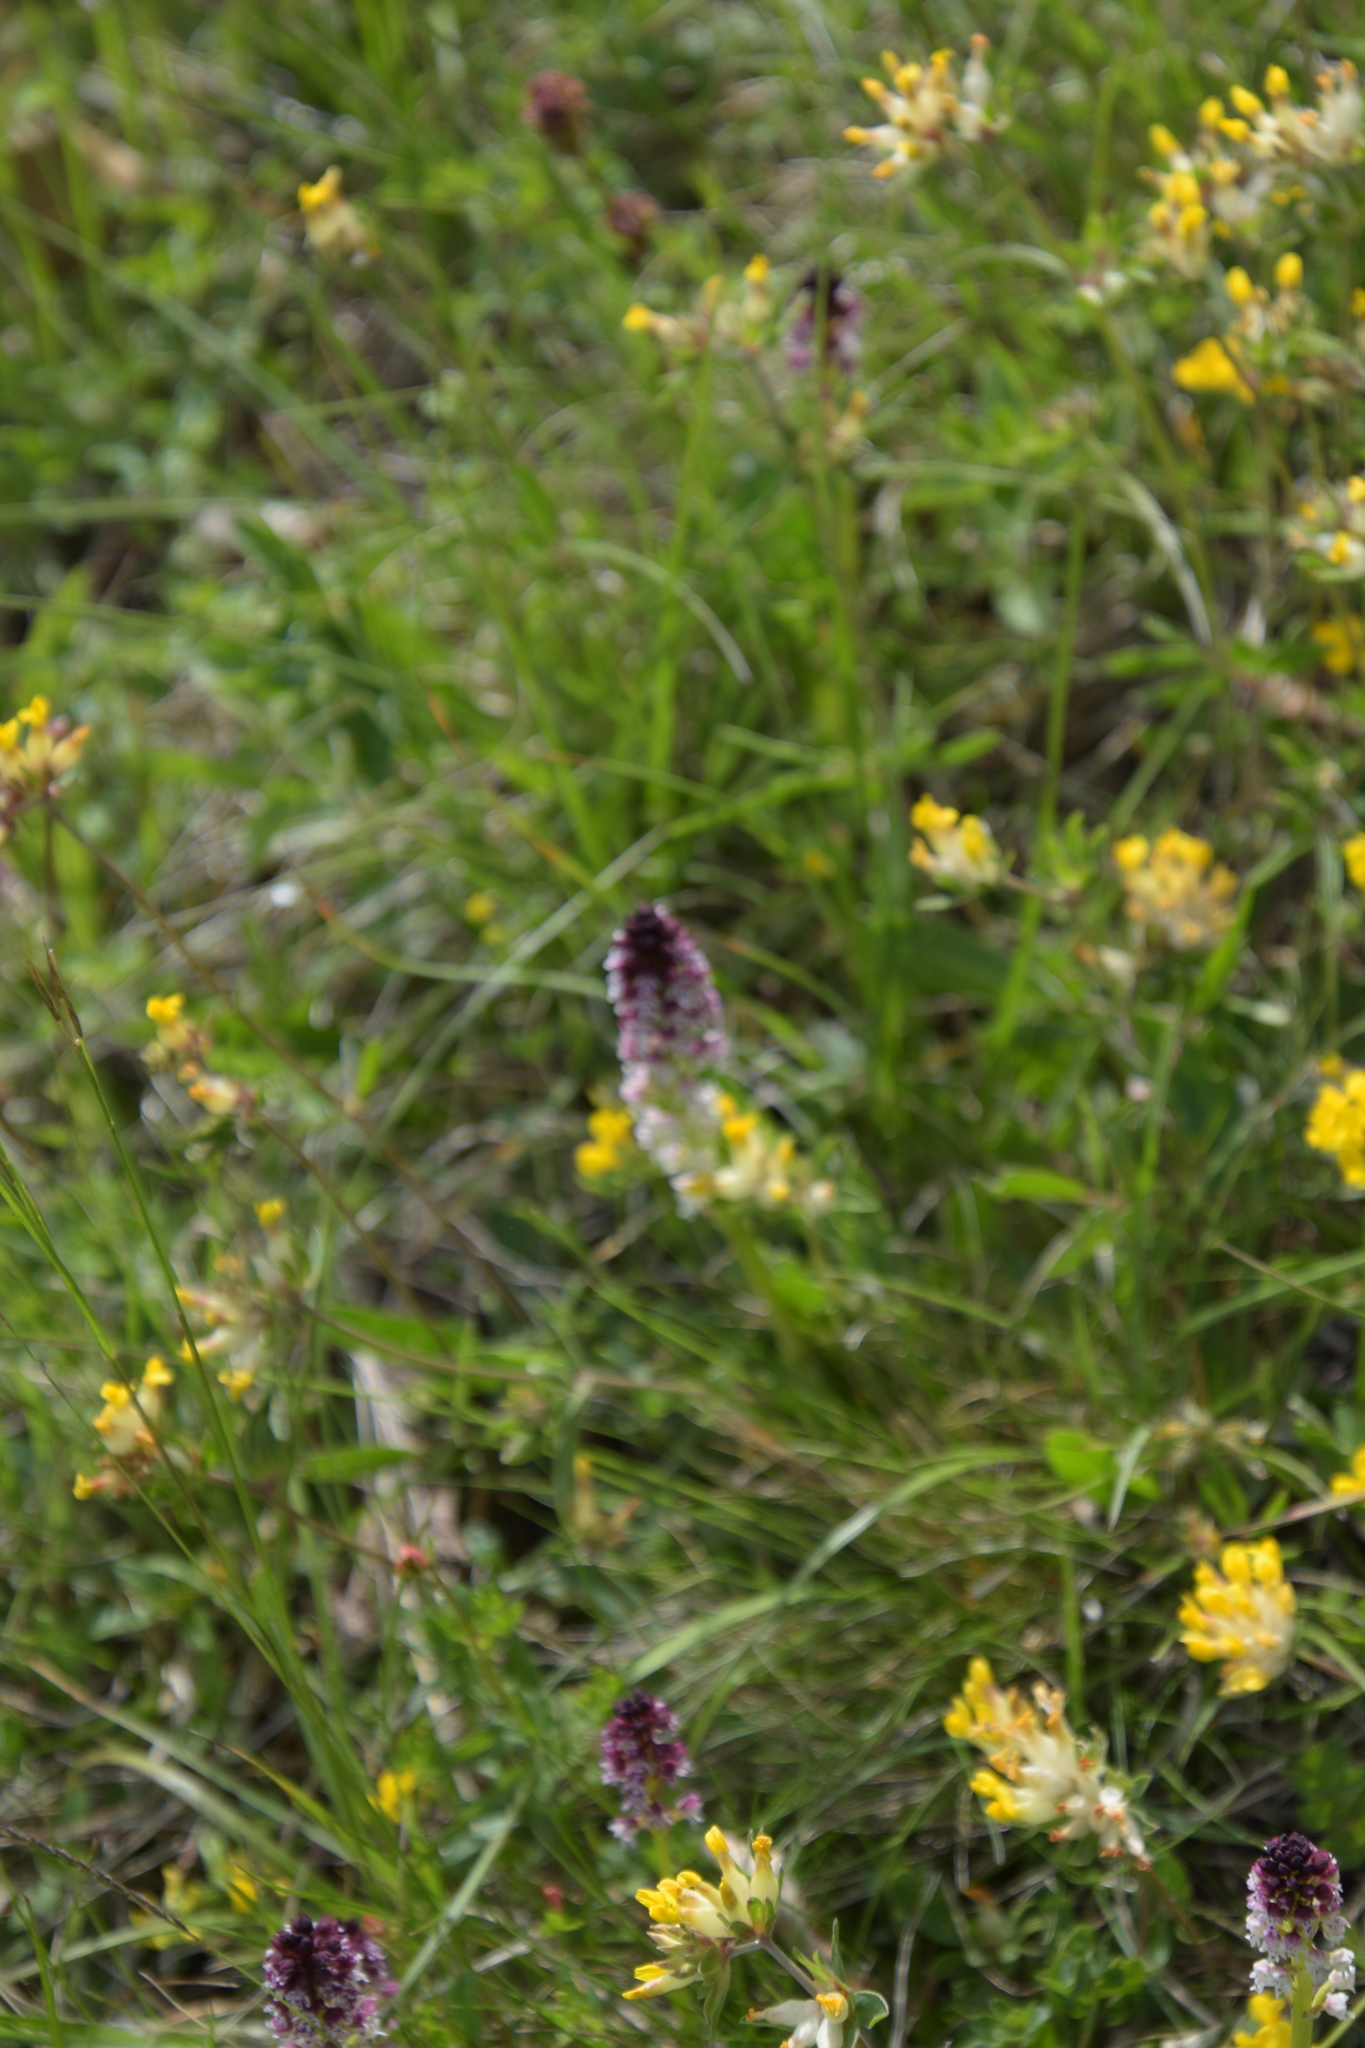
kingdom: Plantae
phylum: Tracheophyta
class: Liliopsida
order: Asparagales
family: Orchidaceae
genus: Neotinea
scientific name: Neotinea ustulata
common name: Burnt orchid
